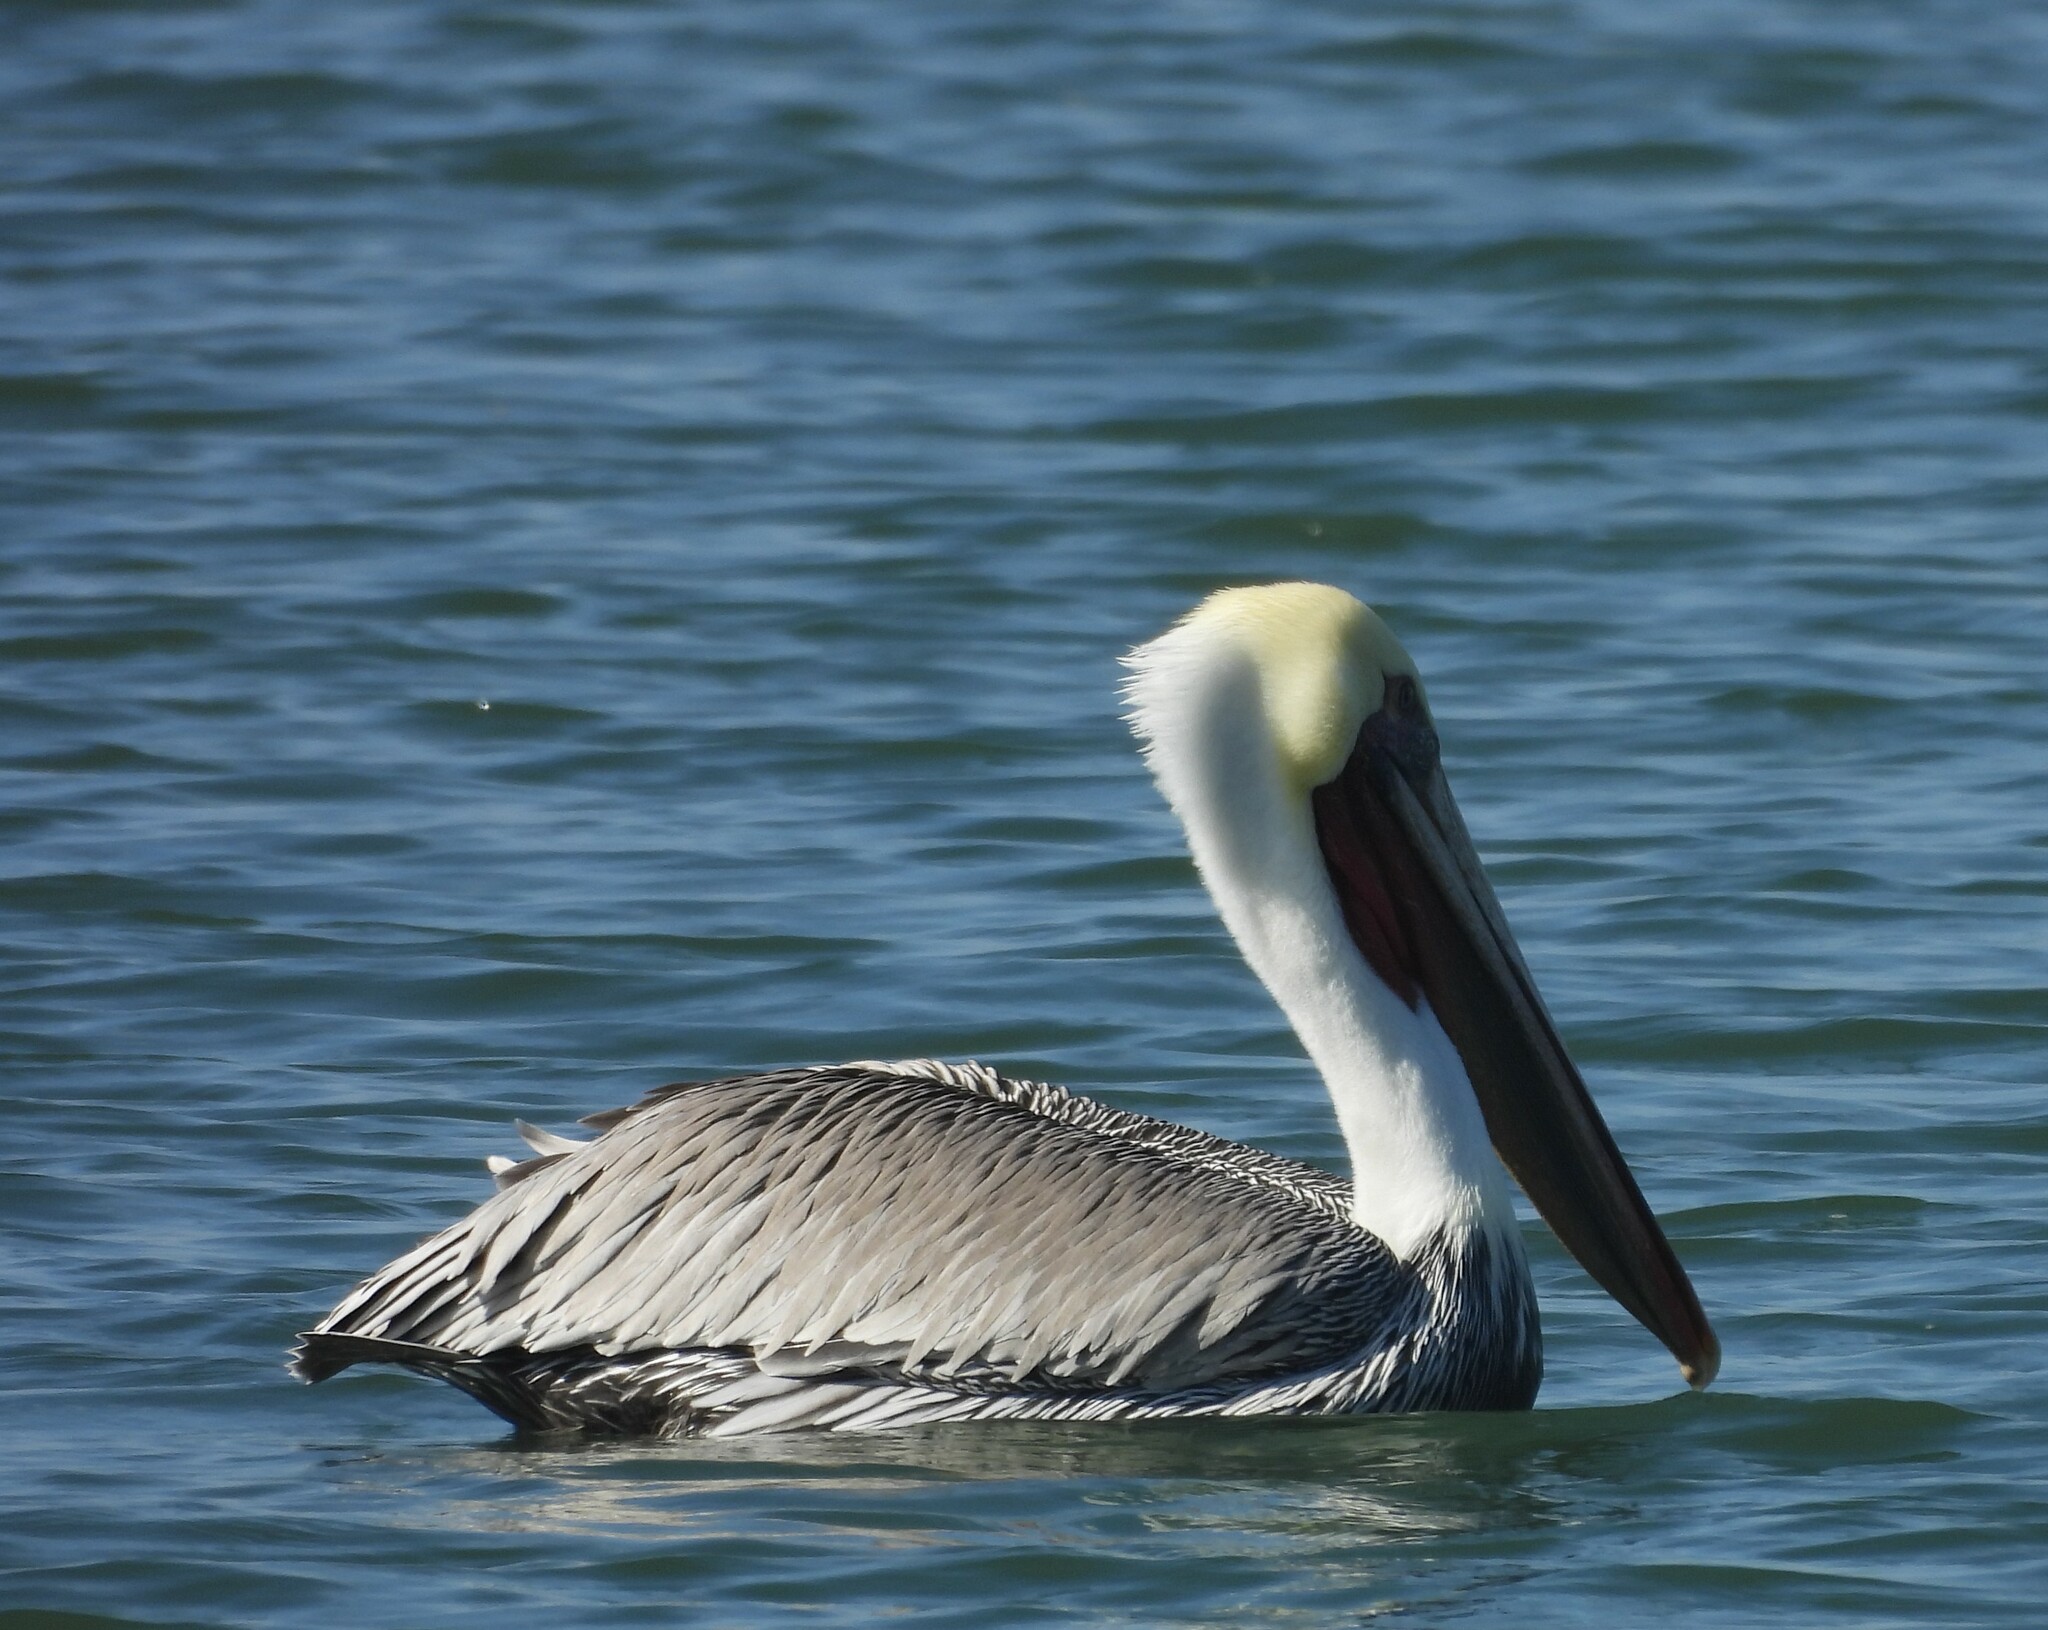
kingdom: Animalia
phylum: Chordata
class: Aves
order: Pelecaniformes
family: Pelecanidae
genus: Pelecanus
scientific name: Pelecanus occidentalis
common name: Brown pelican
